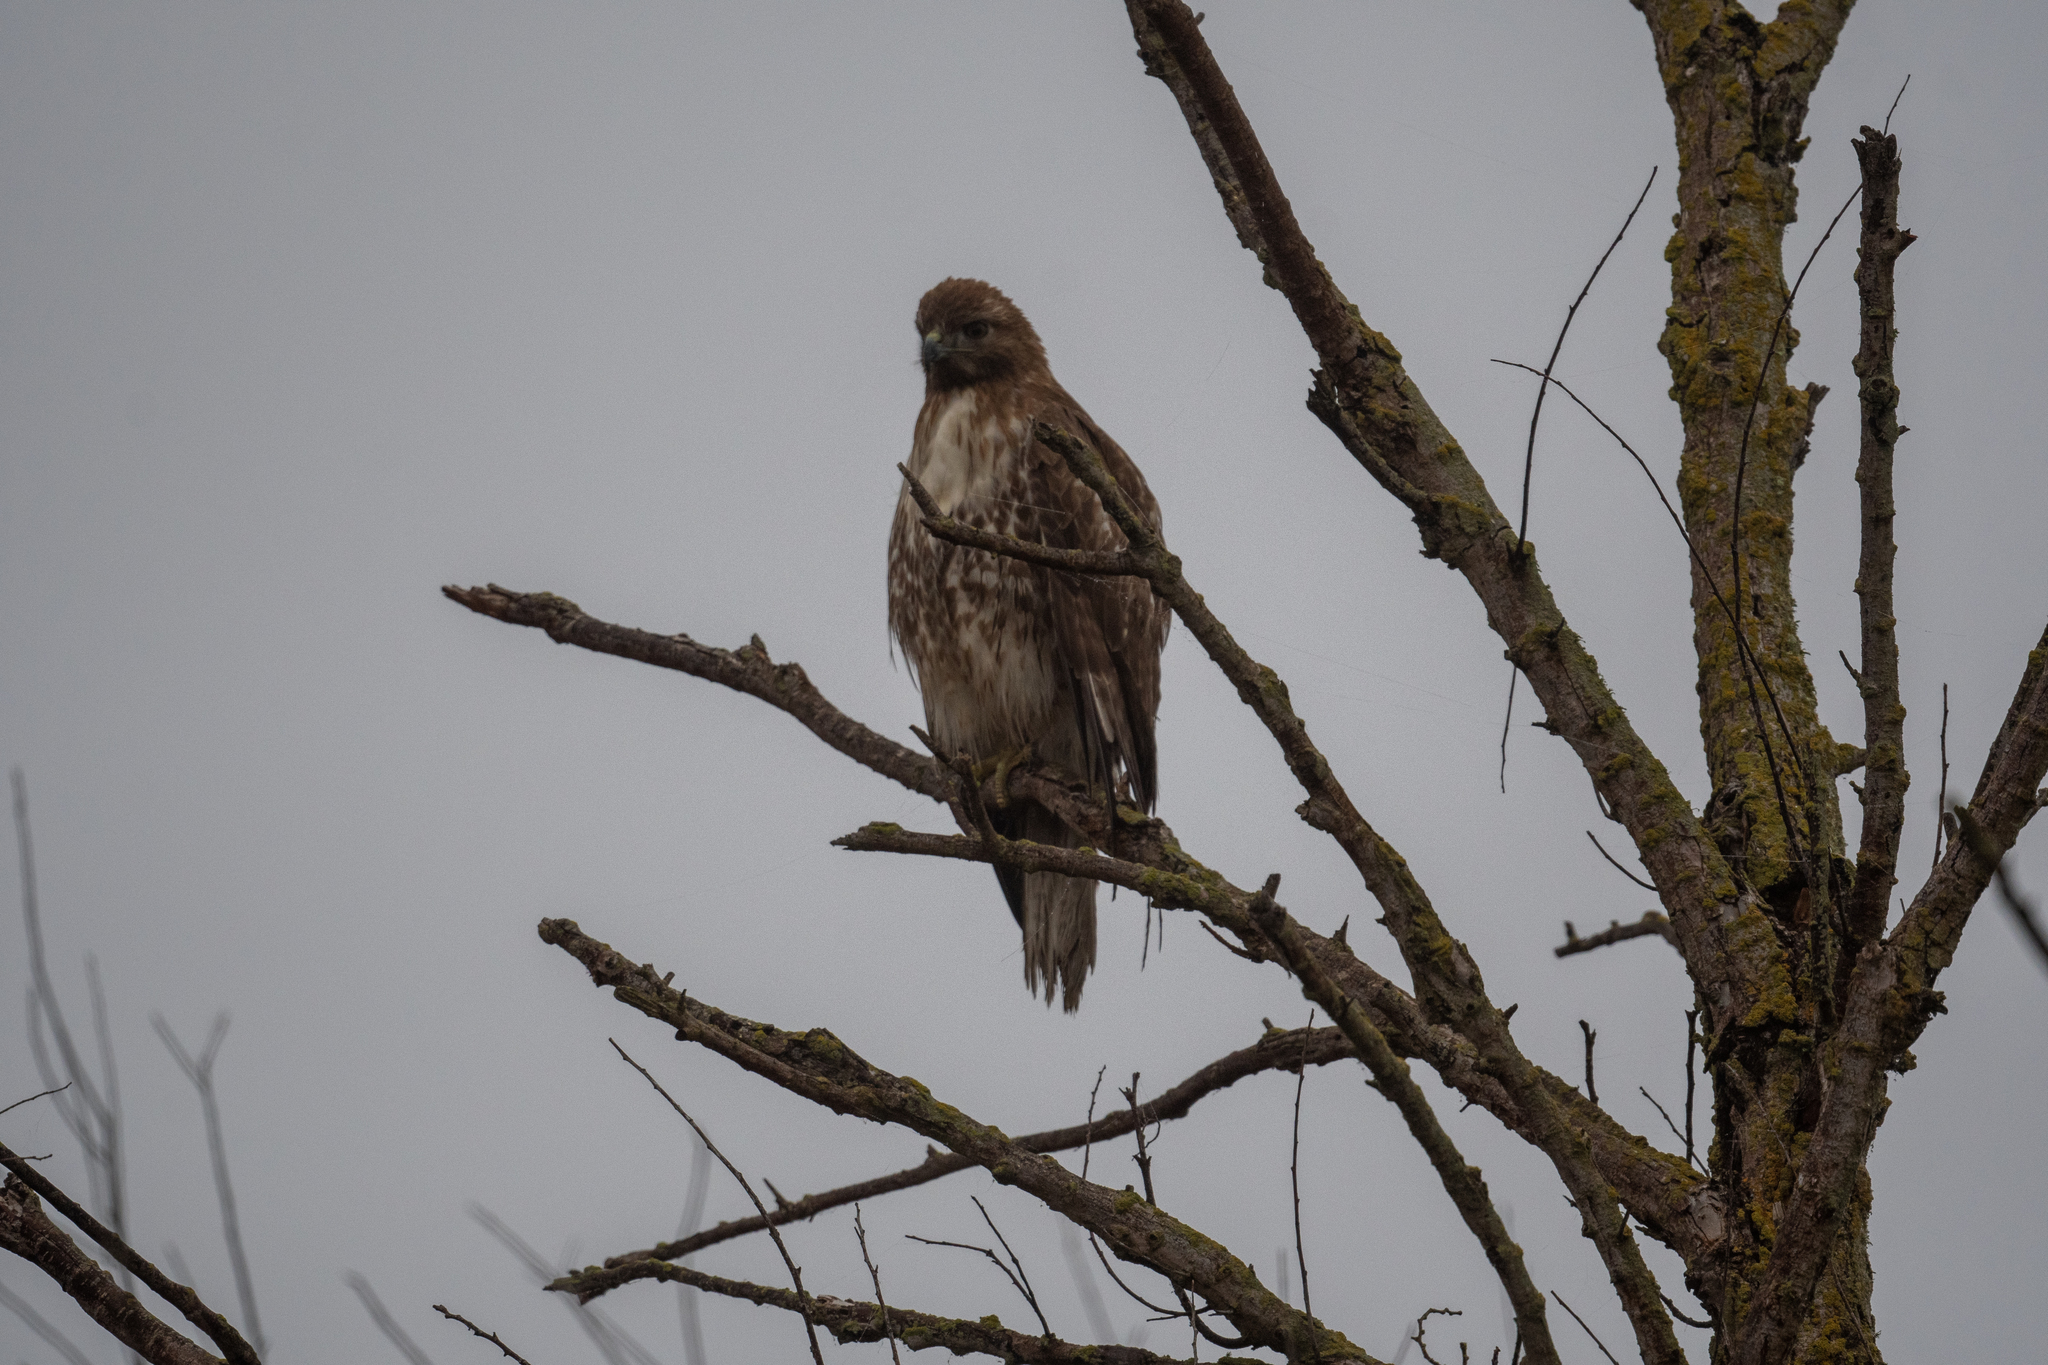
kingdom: Animalia
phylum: Chordata
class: Aves
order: Accipitriformes
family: Accipitridae
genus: Buteo
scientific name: Buteo jamaicensis
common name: Red-tailed hawk
